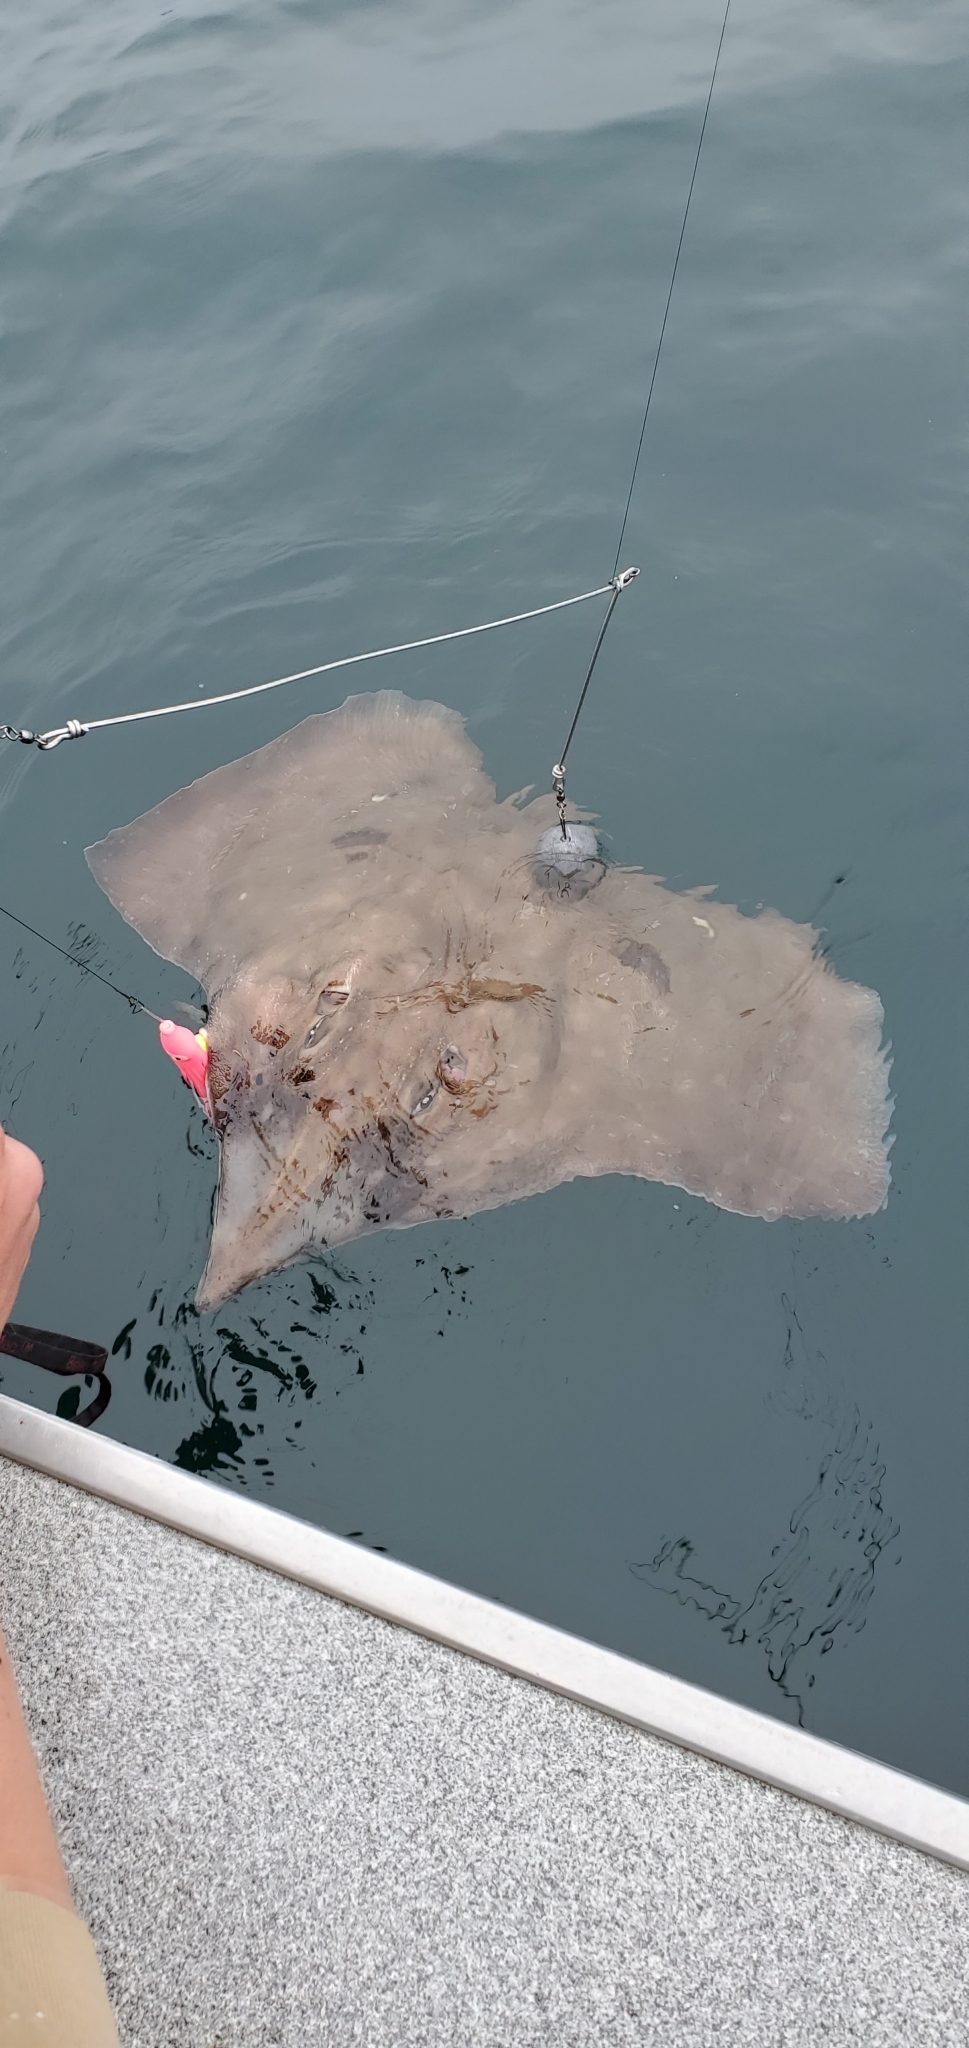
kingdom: Animalia
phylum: Chordata
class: Elasmobranchii
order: Rajiformes
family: Rajidae
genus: Caliraja
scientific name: Caliraja
